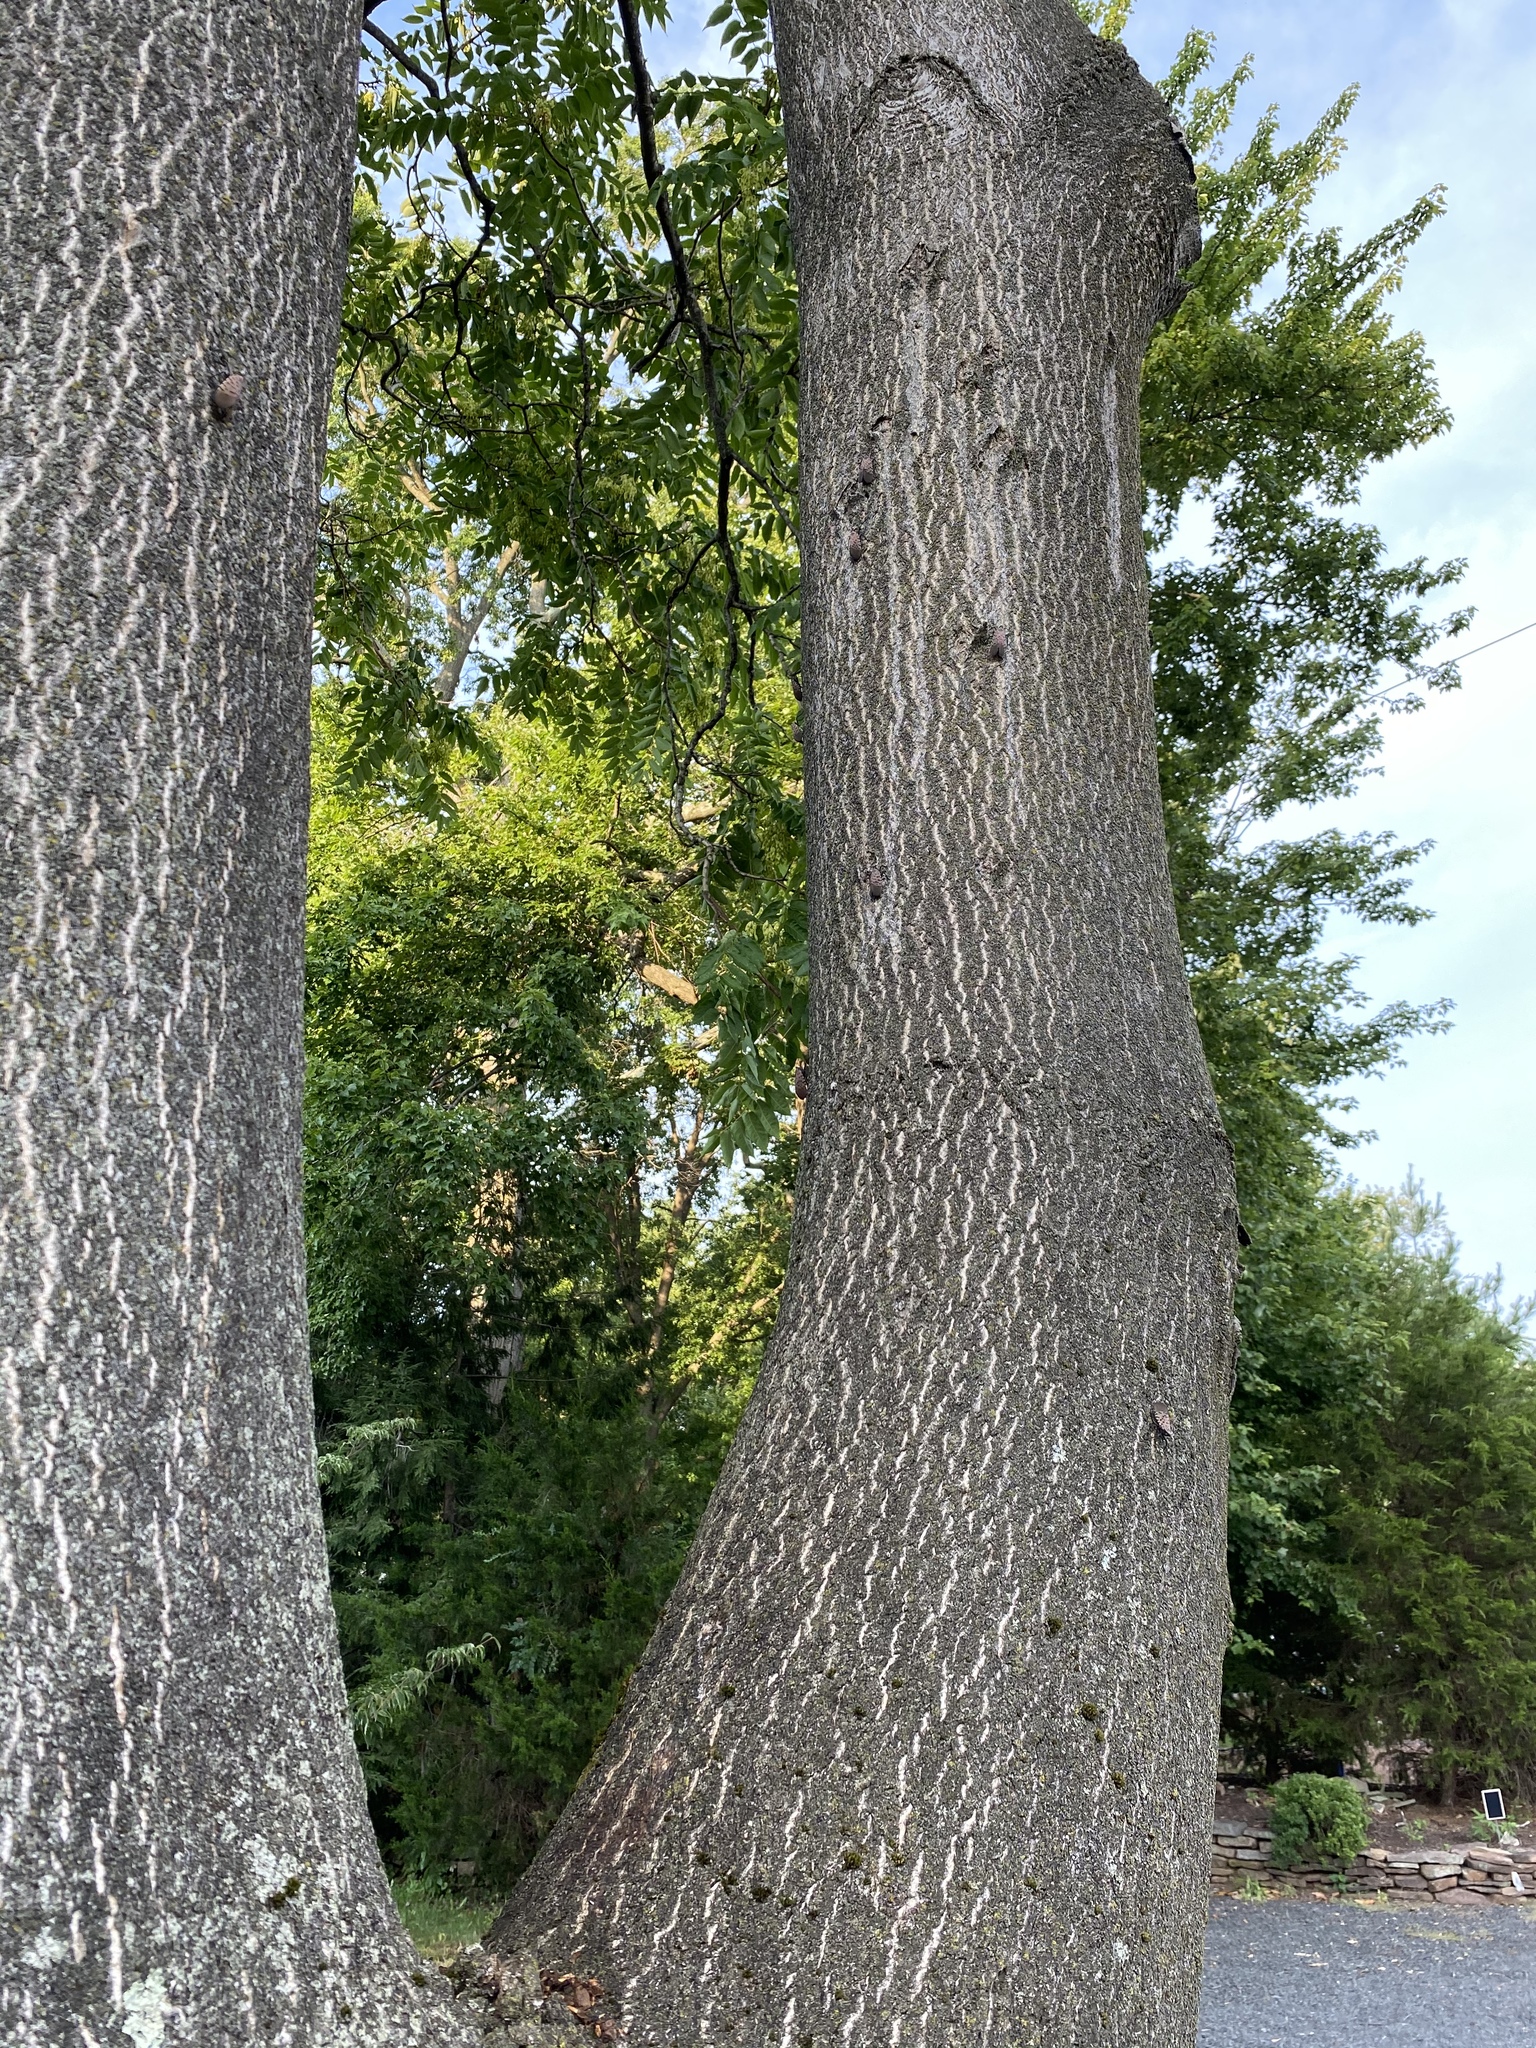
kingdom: Animalia
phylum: Arthropoda
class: Insecta
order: Hemiptera
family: Fulgoridae
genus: Lycorma
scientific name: Lycorma delicatula
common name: Spotted lanternfly
